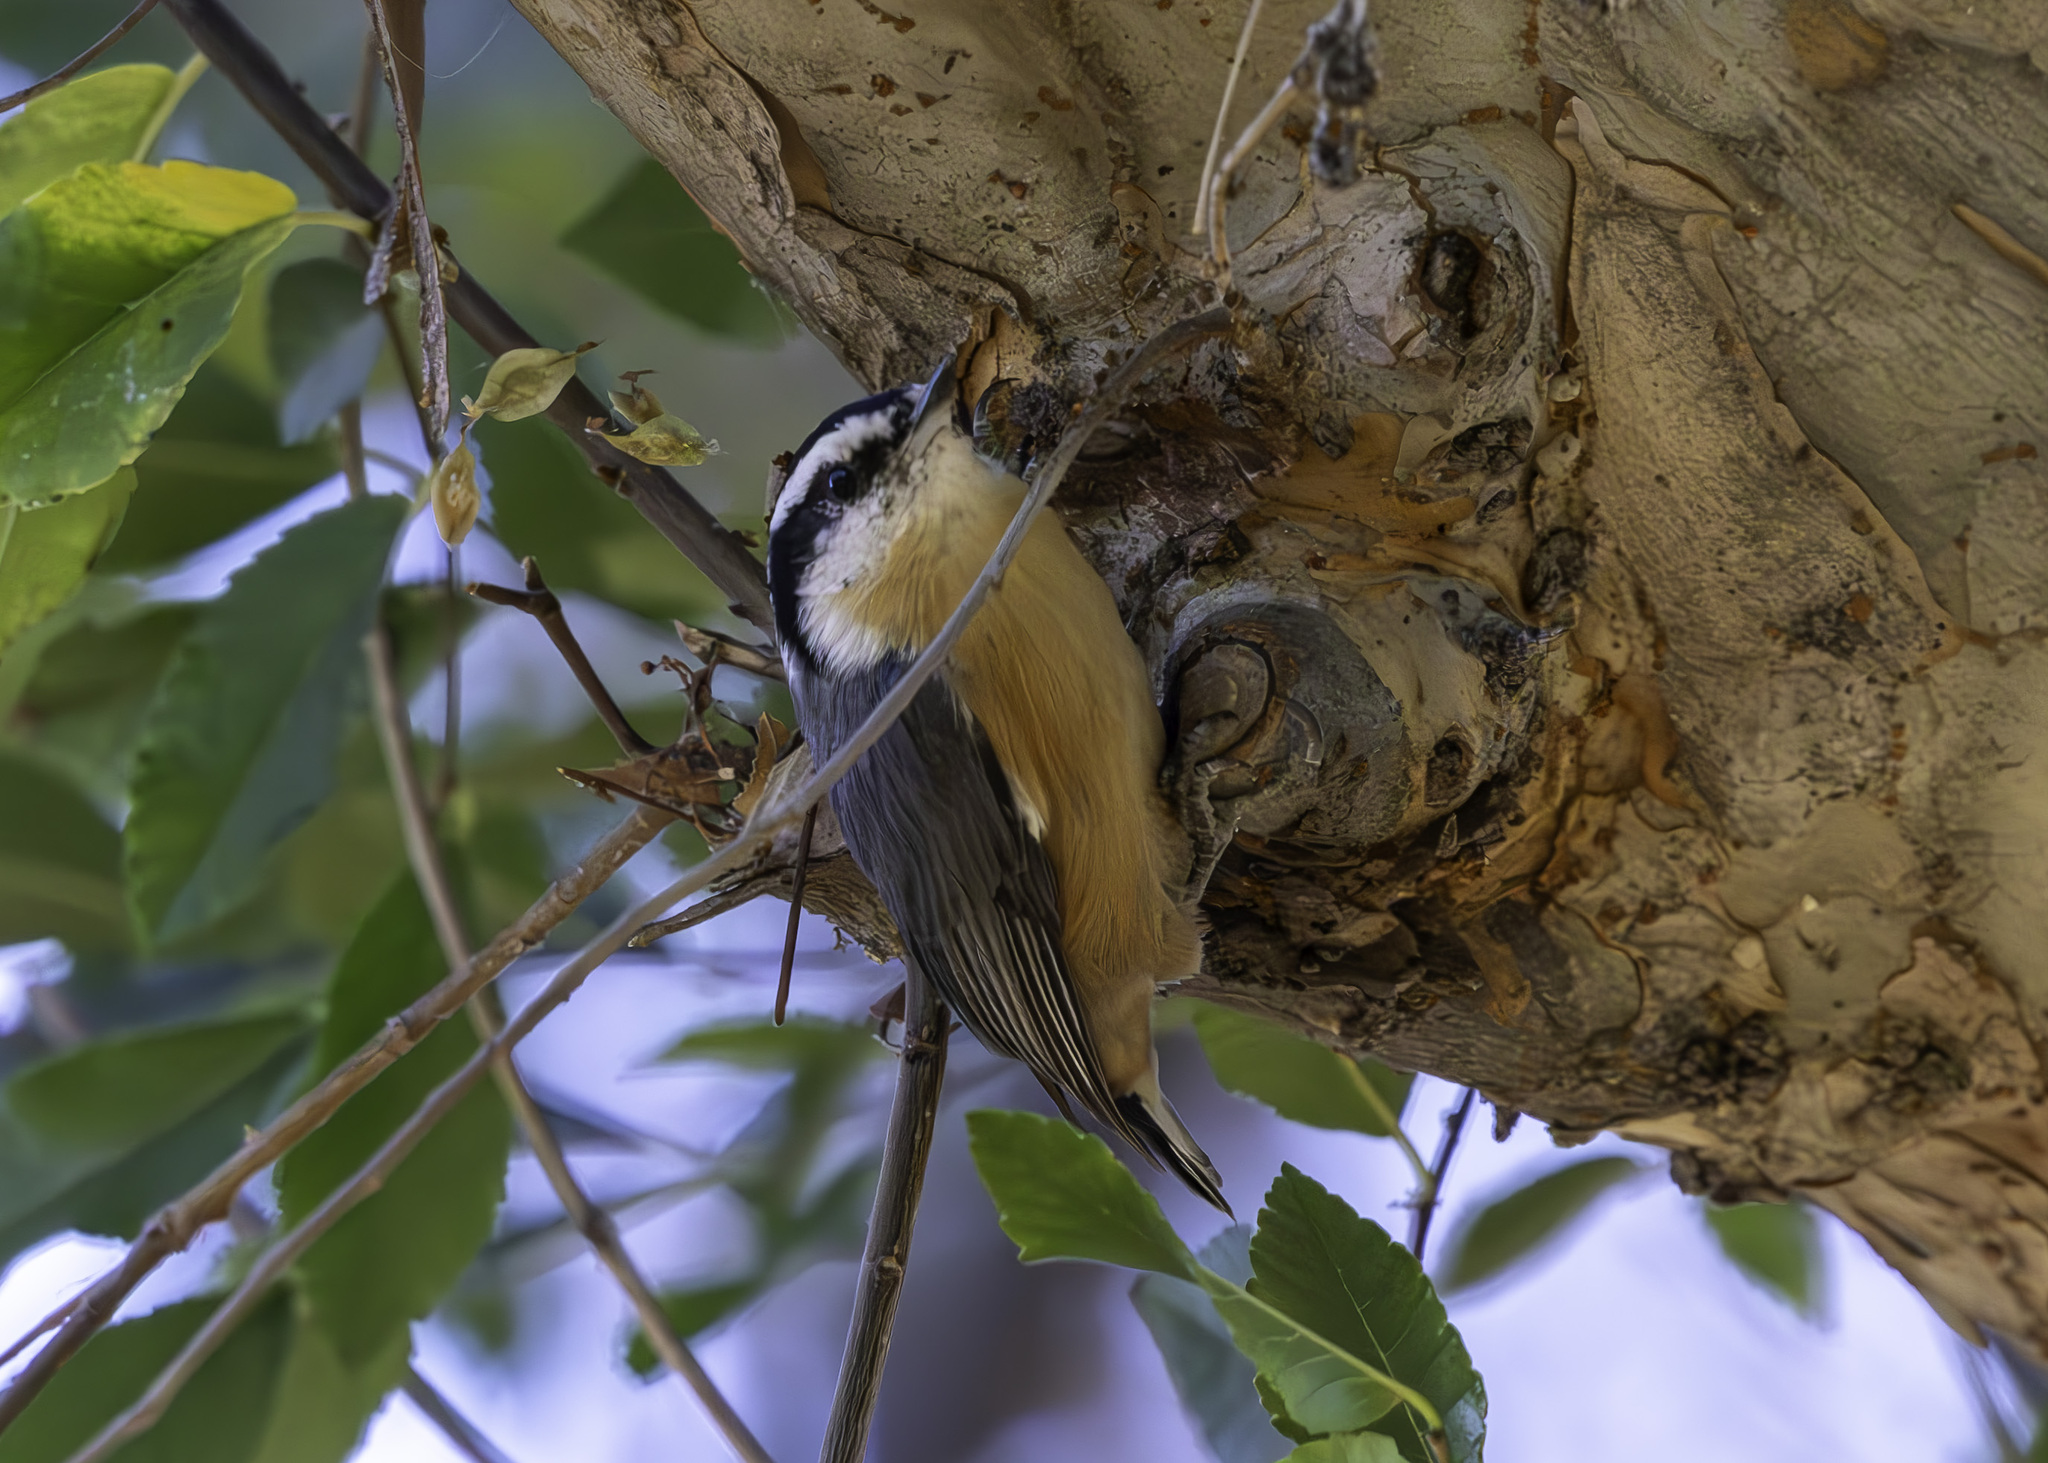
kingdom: Animalia
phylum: Chordata
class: Aves
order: Passeriformes
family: Sittidae
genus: Sitta
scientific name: Sitta canadensis
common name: Red-breasted nuthatch
